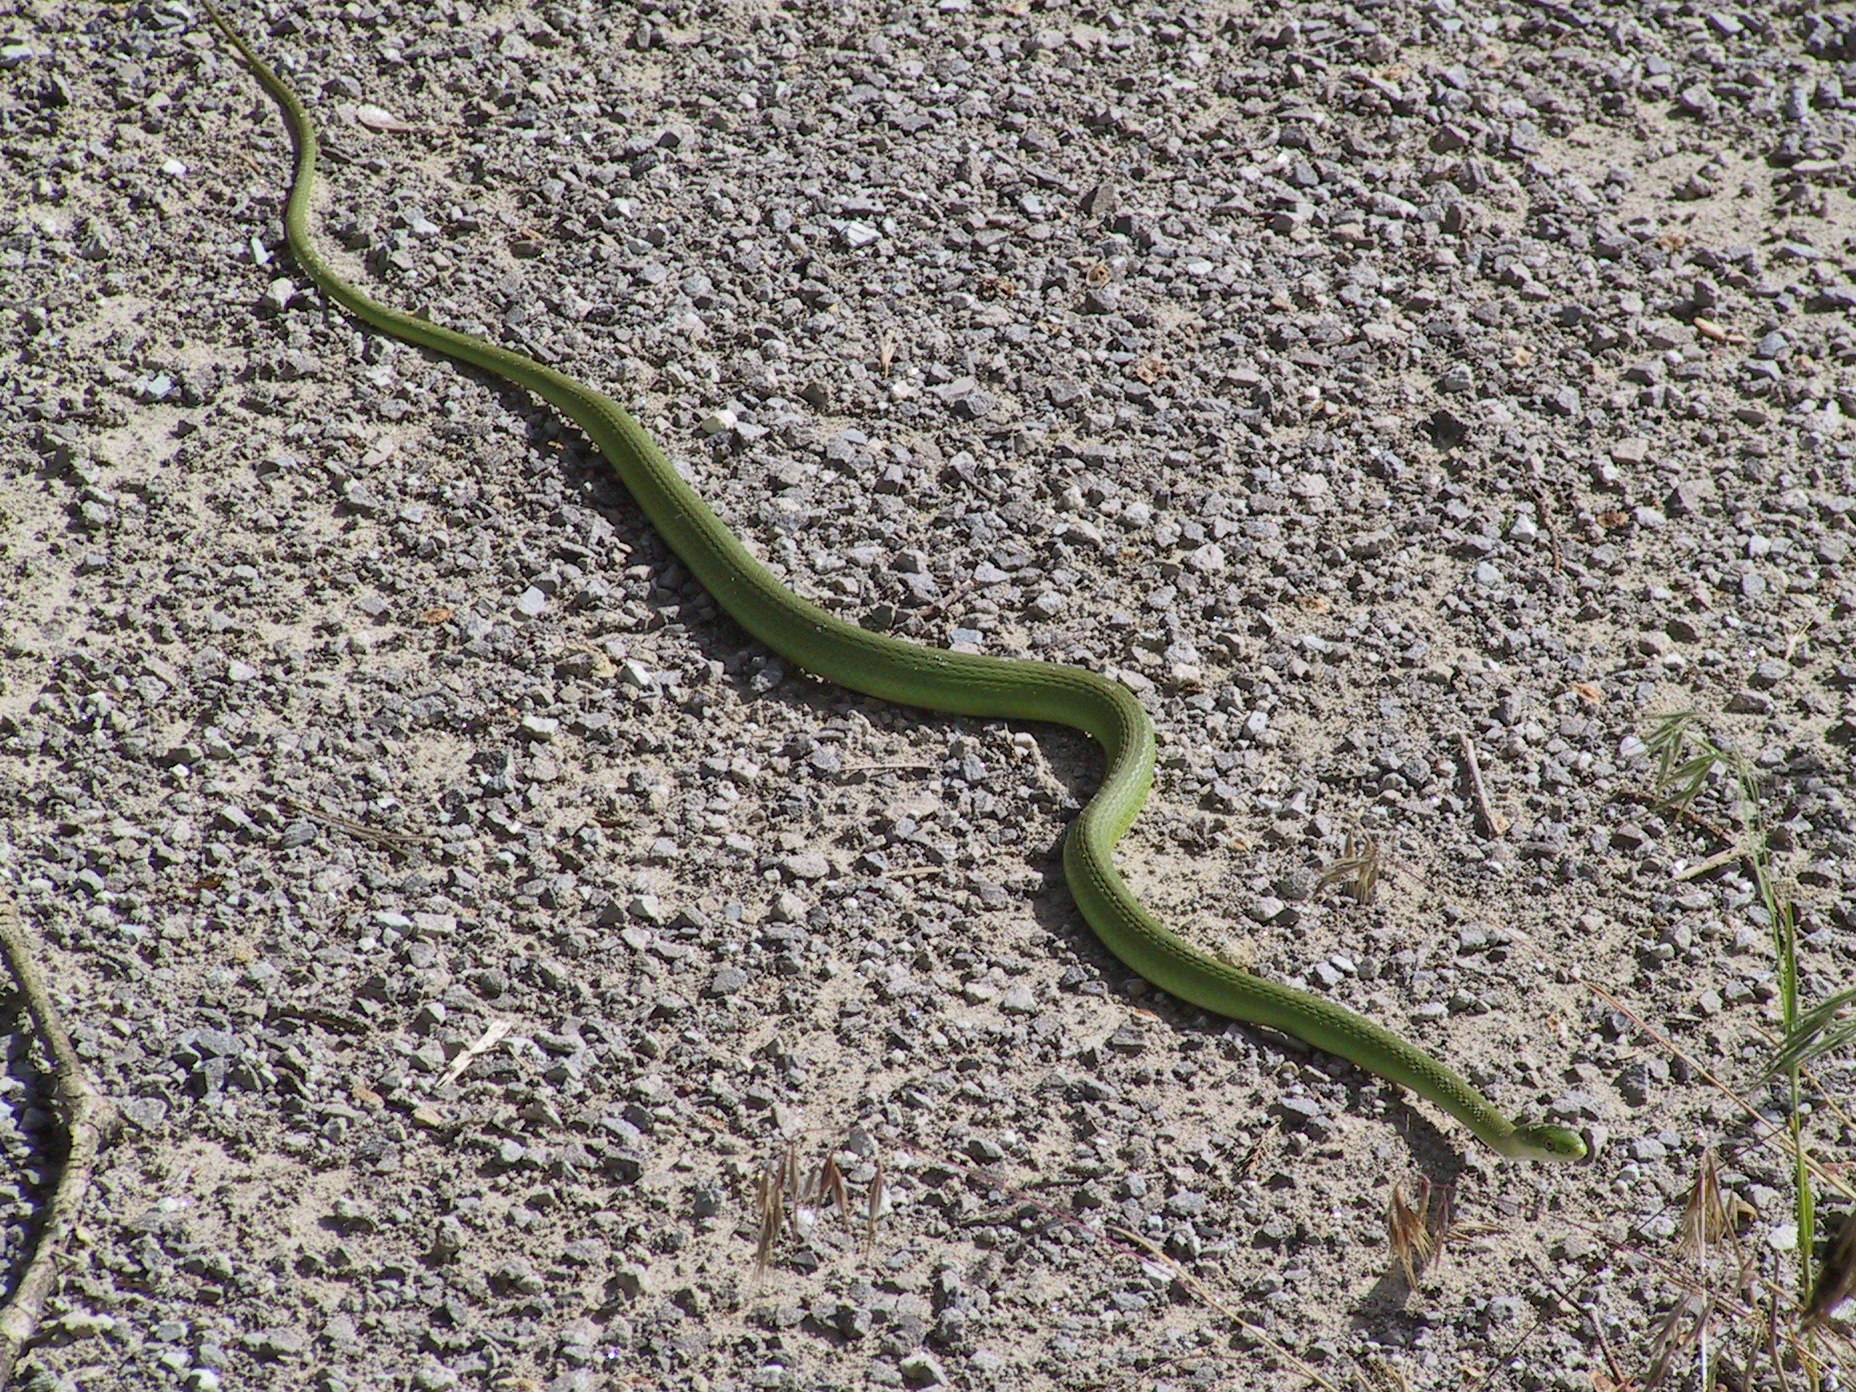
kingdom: Animalia
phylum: Chordata
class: Squamata
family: Colubridae
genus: Opheodrys
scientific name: Opheodrys aestivus
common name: Rough greensnake
